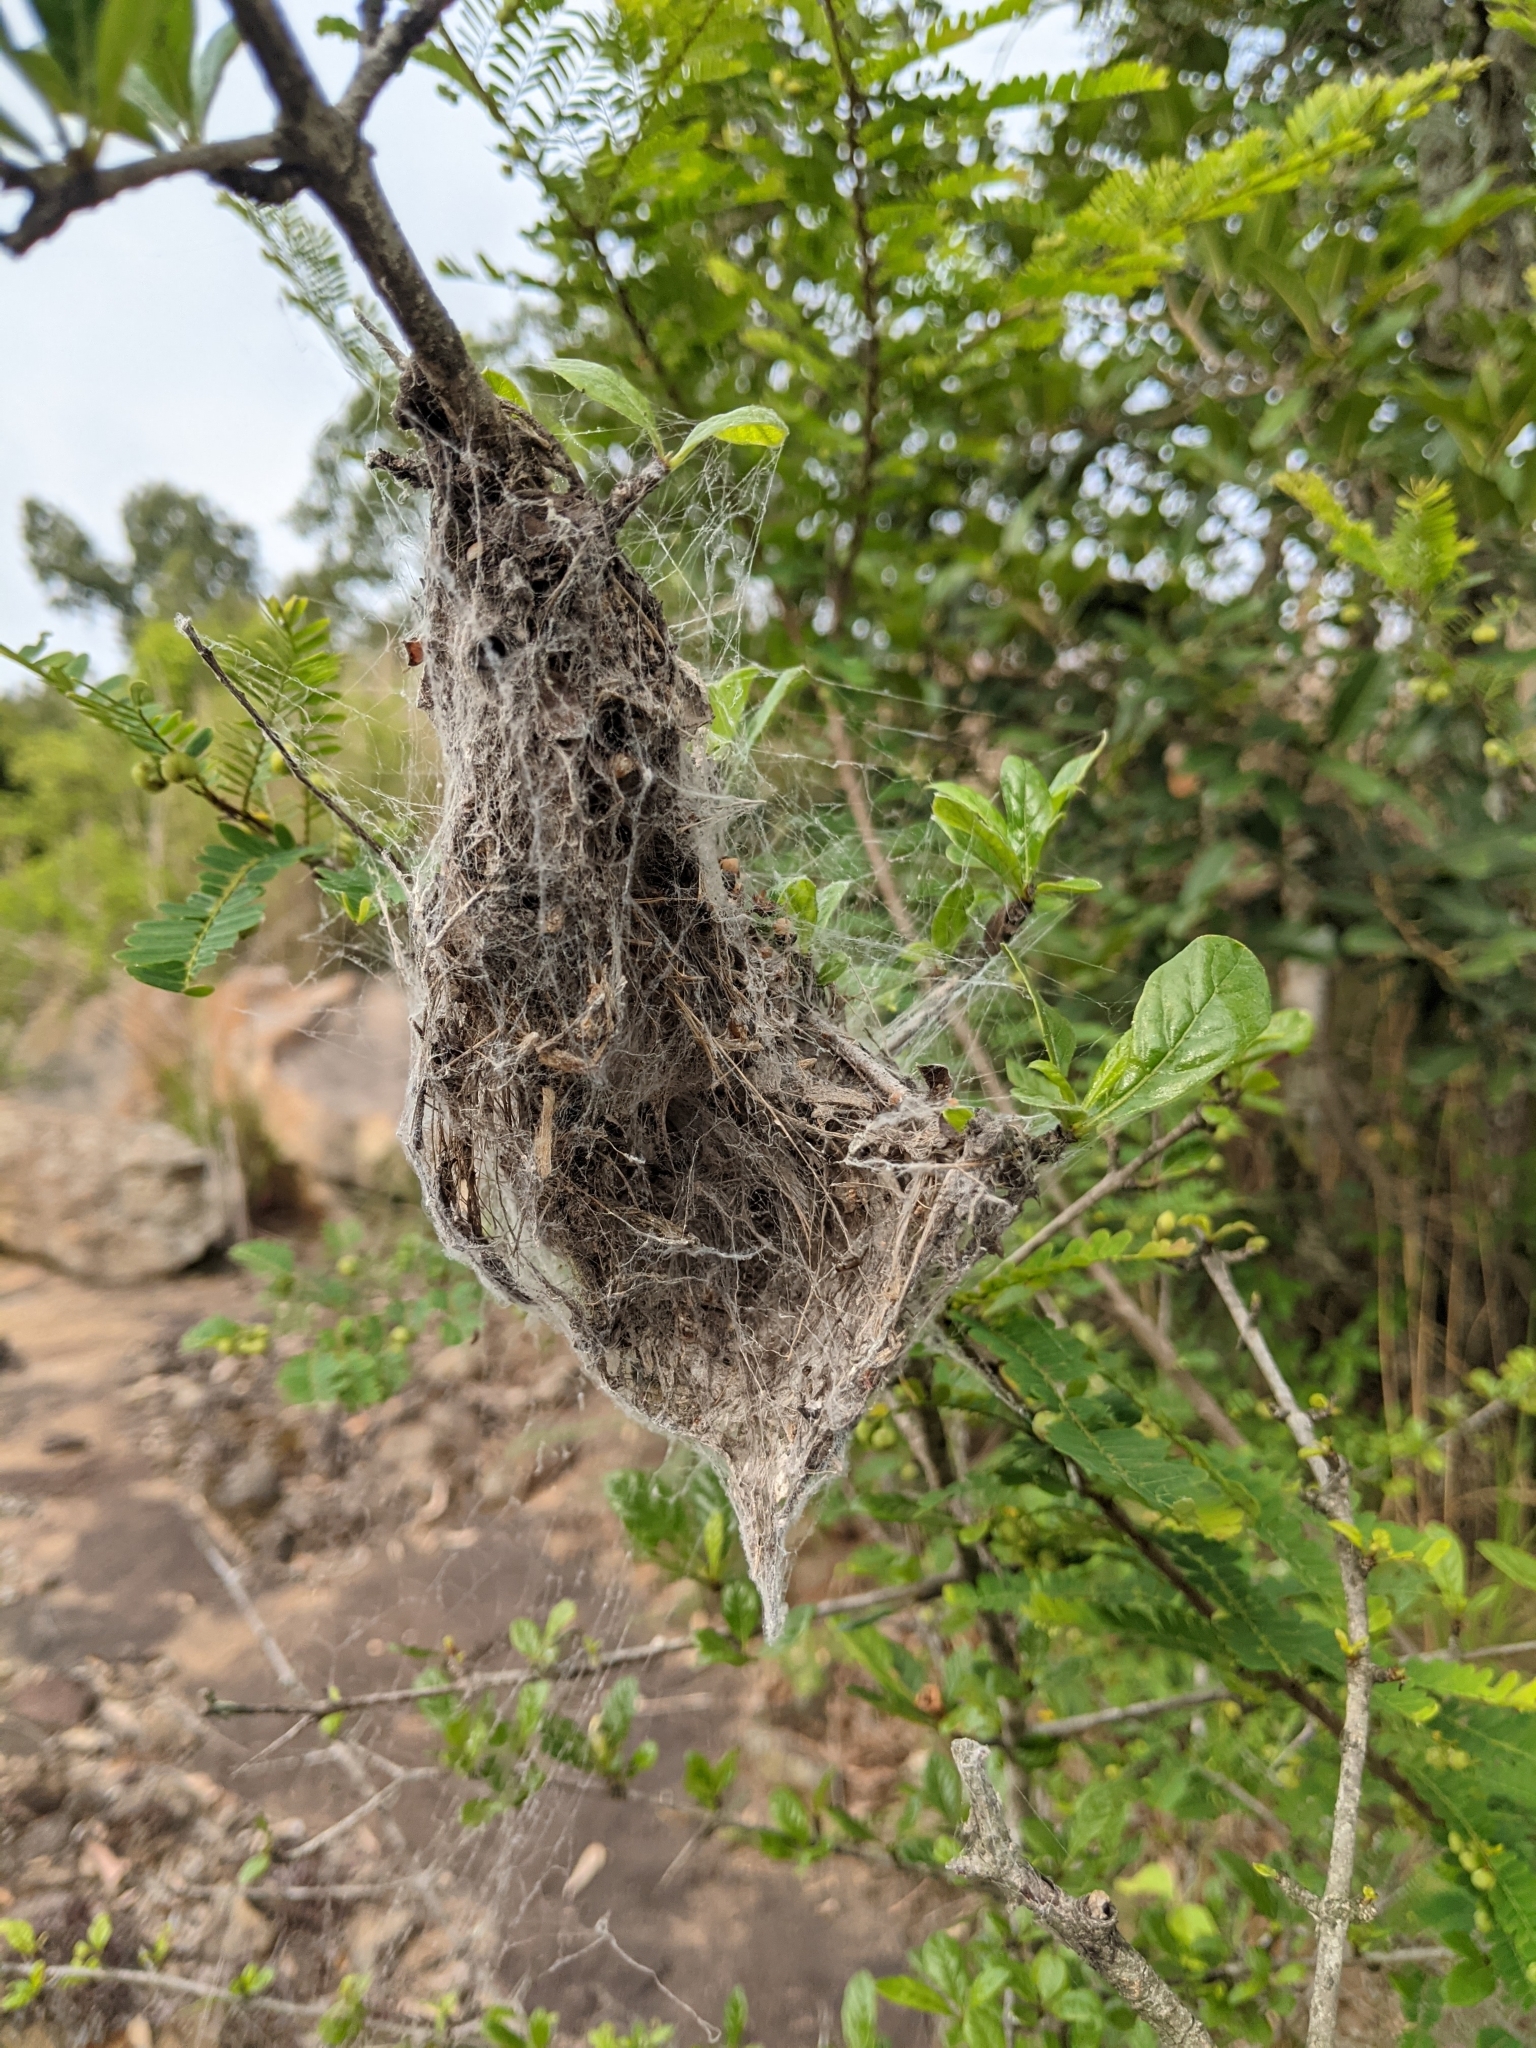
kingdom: Animalia
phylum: Arthropoda
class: Arachnida
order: Araneae
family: Eresidae
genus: Stegodyphus
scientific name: Stegodyphus sarasinorum
